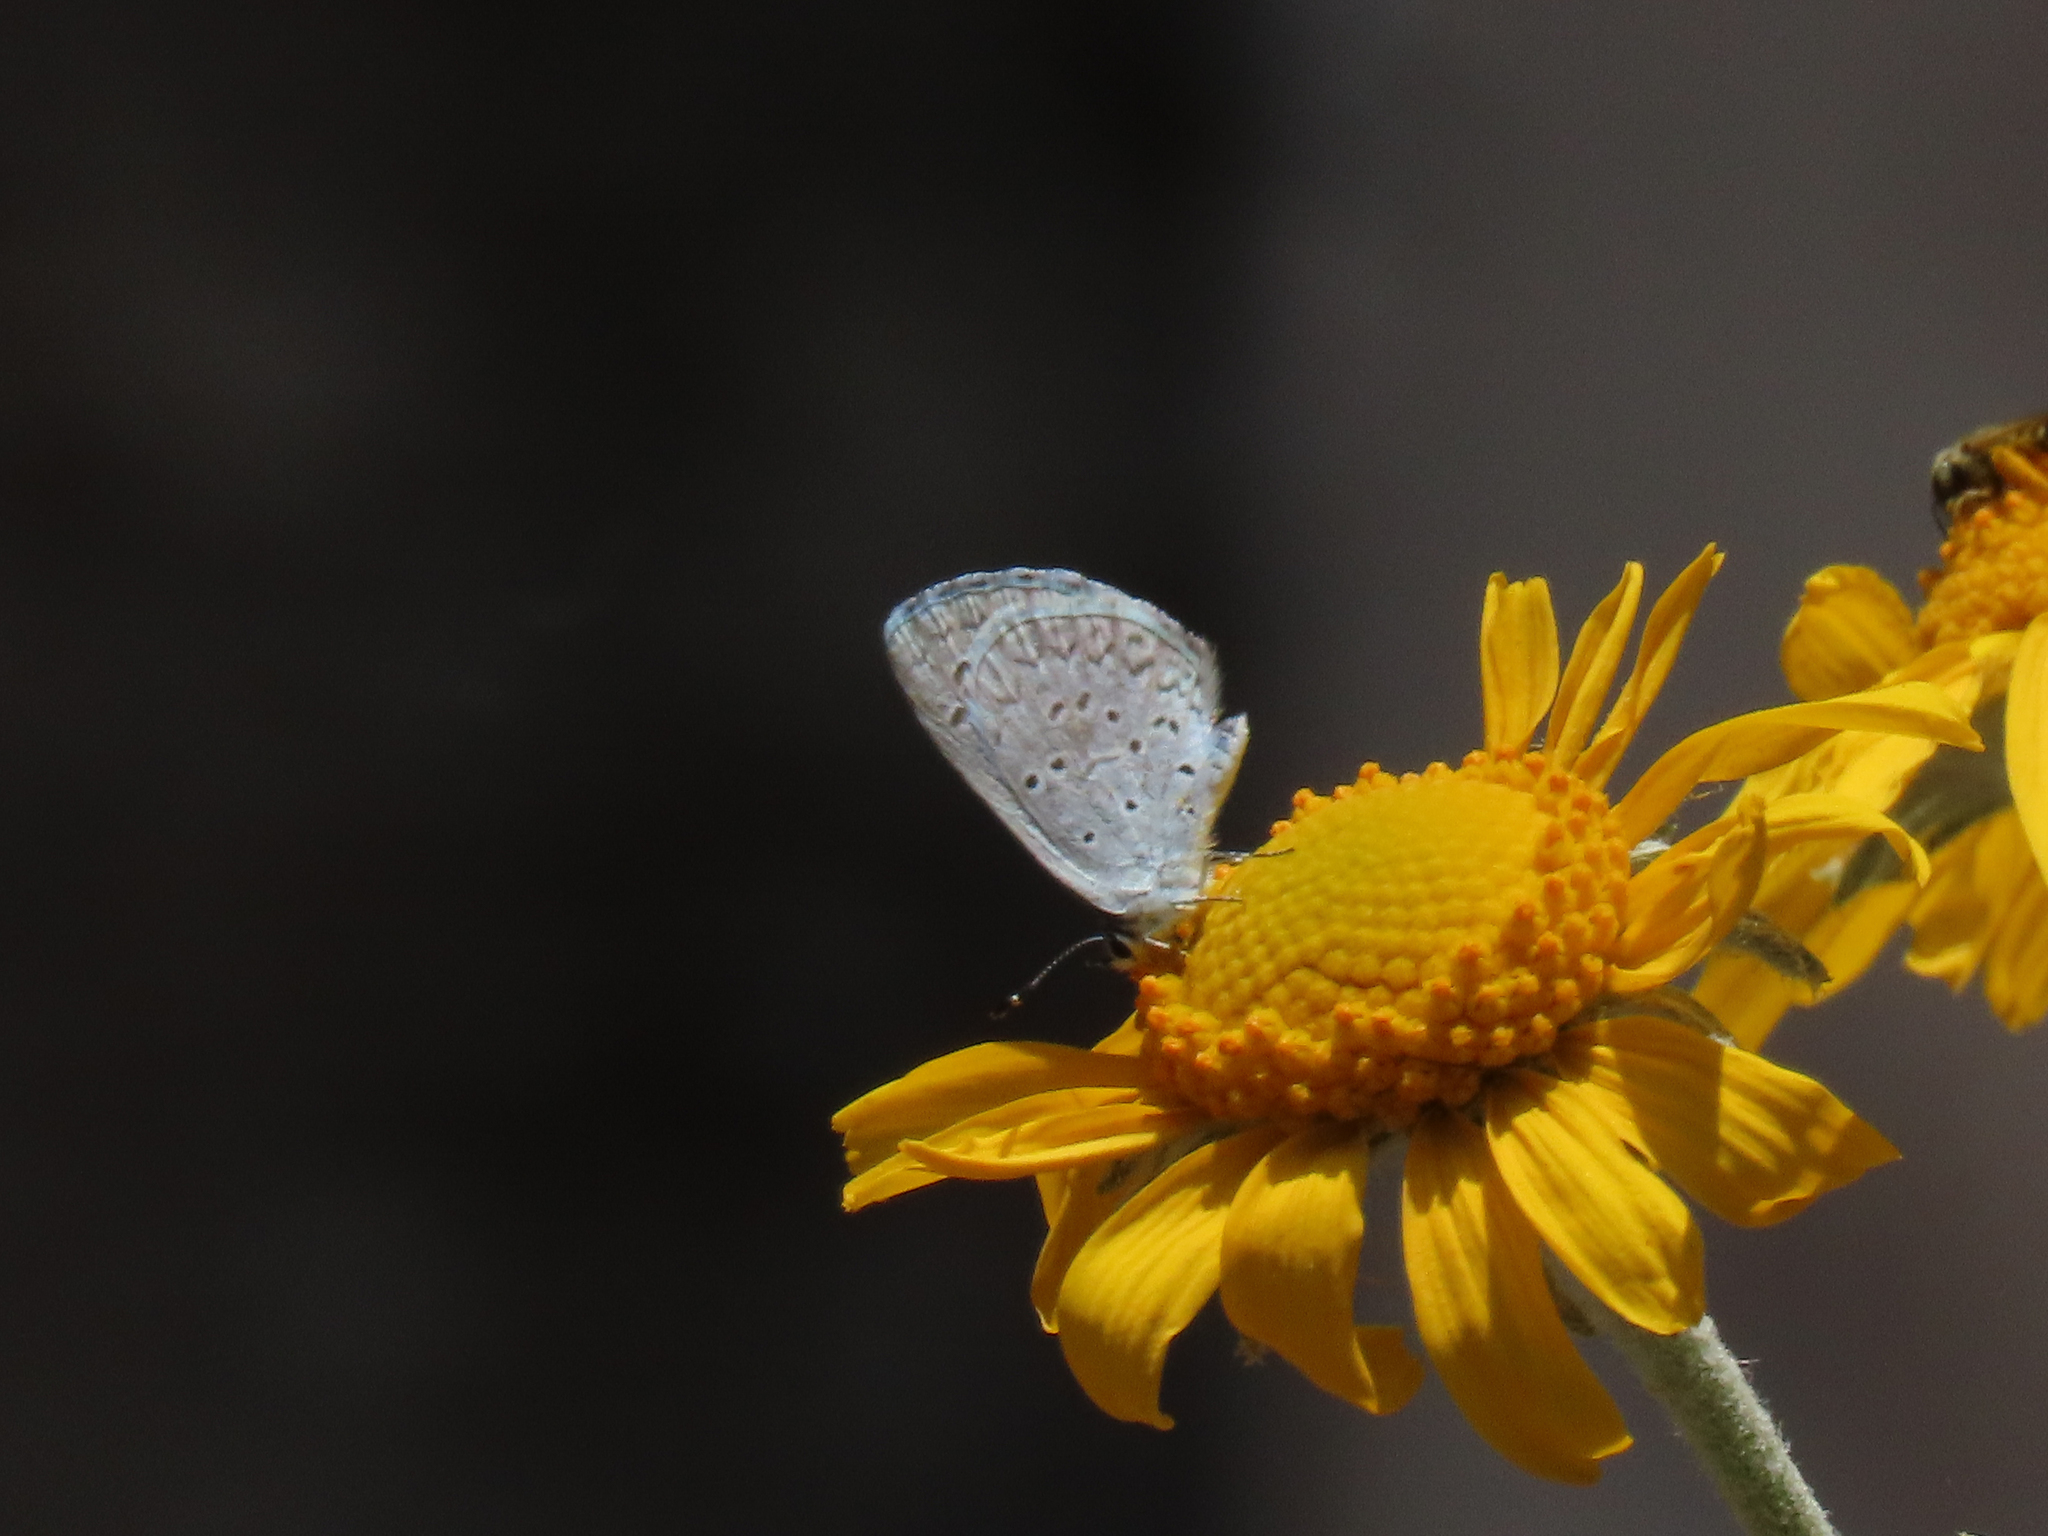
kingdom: Animalia
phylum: Arthropoda
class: Insecta
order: Lepidoptera
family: Lycaenidae
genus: Celastrina
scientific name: Celastrina ladon
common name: Spring azure
